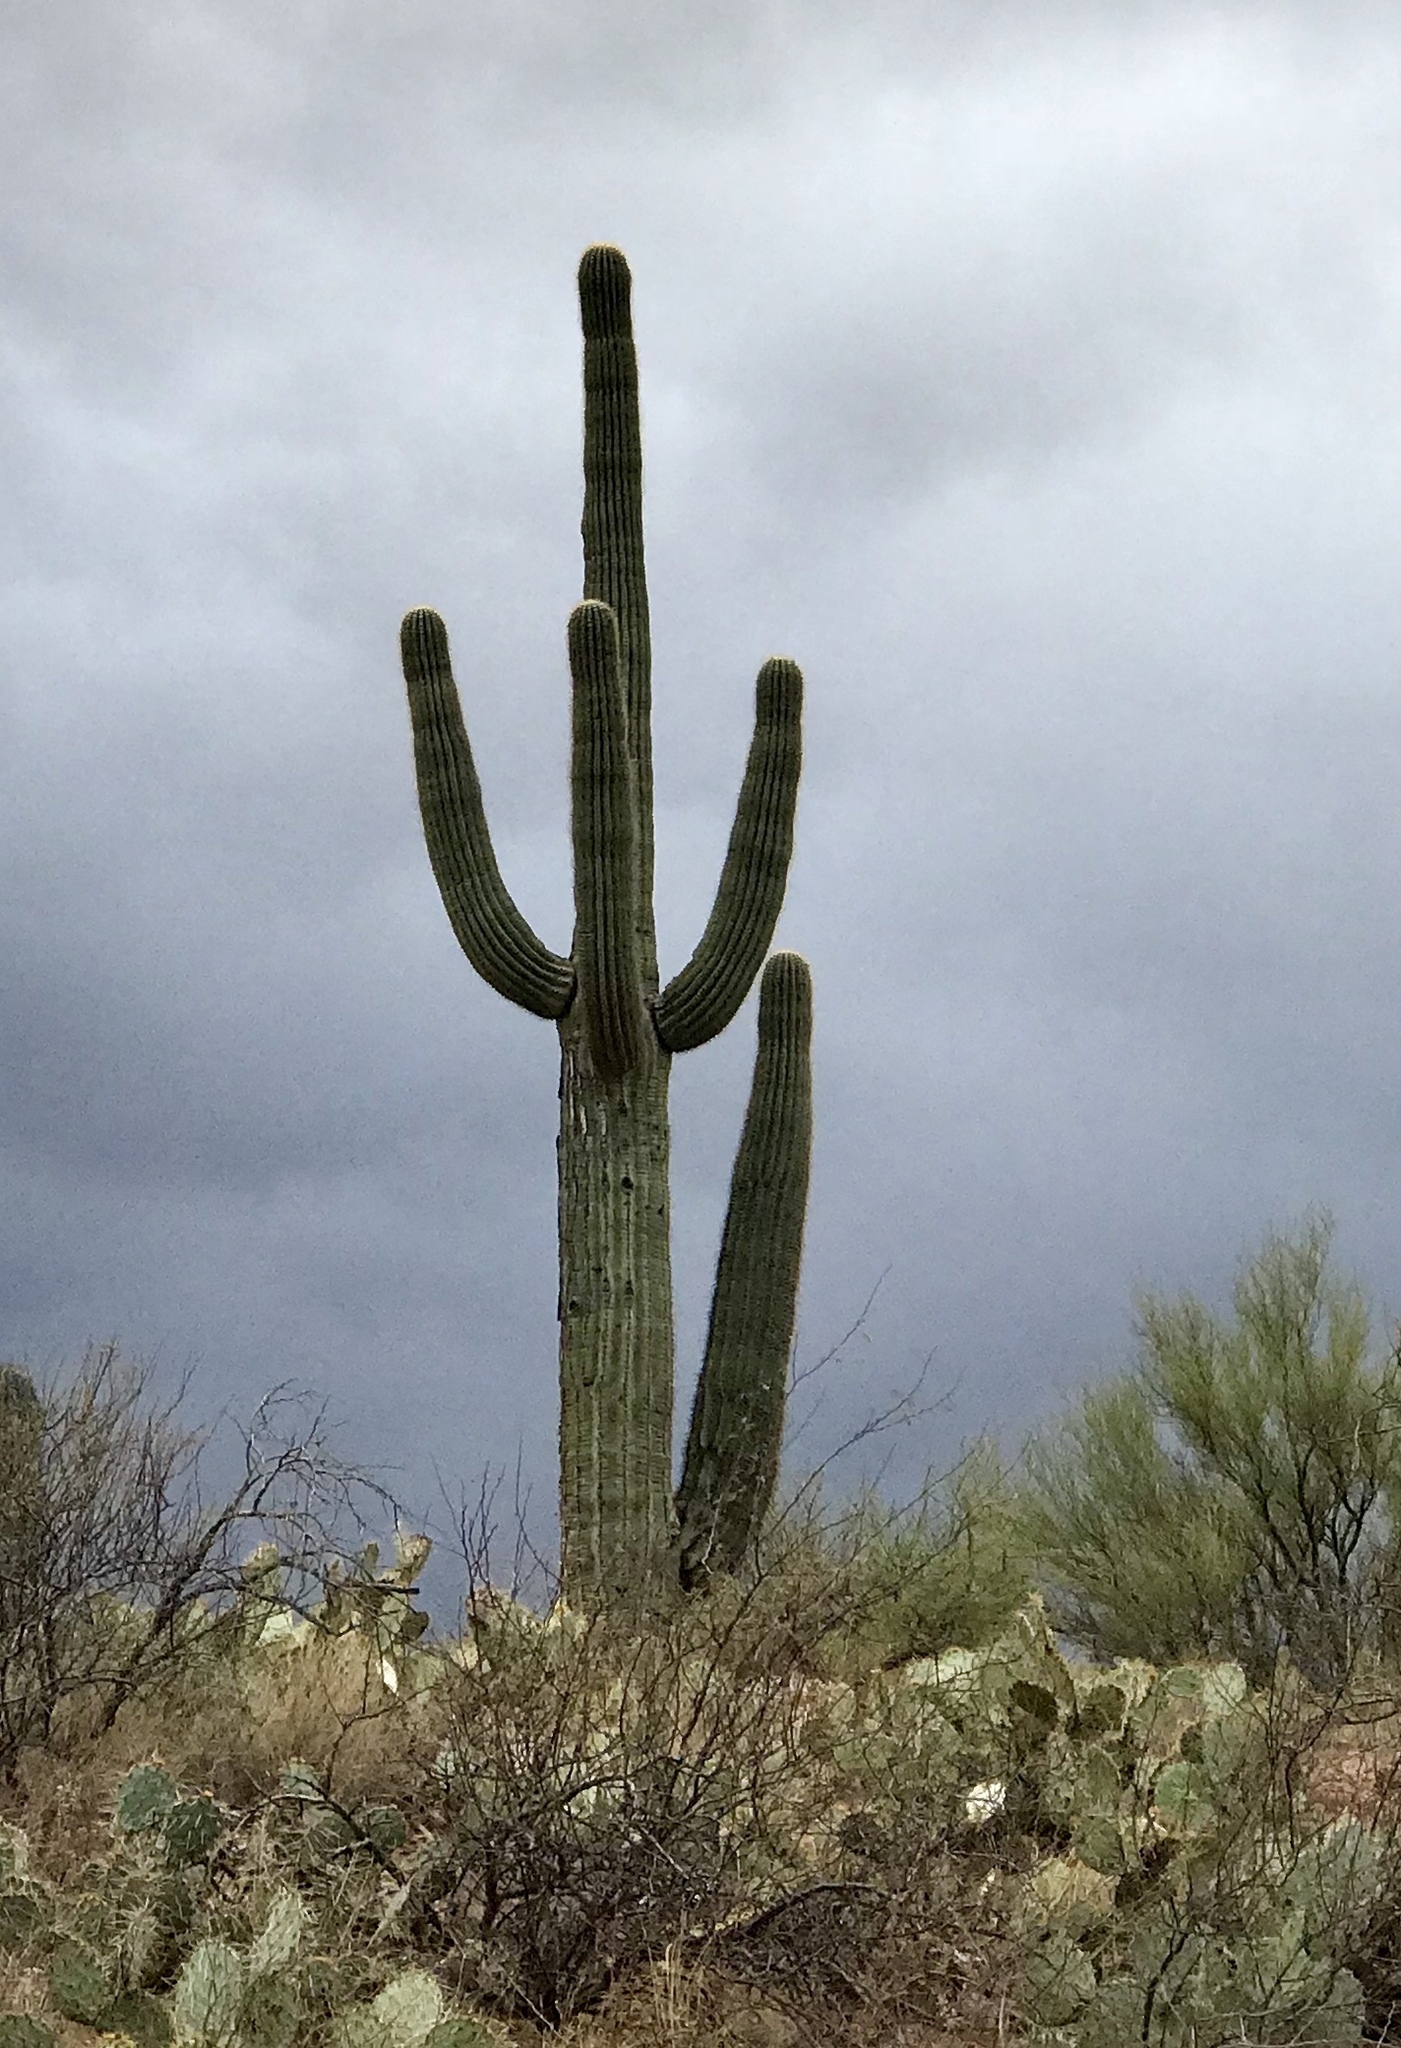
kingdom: Plantae
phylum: Tracheophyta
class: Magnoliopsida
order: Caryophyllales
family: Cactaceae
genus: Carnegiea
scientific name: Carnegiea gigantea
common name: Saguaro
